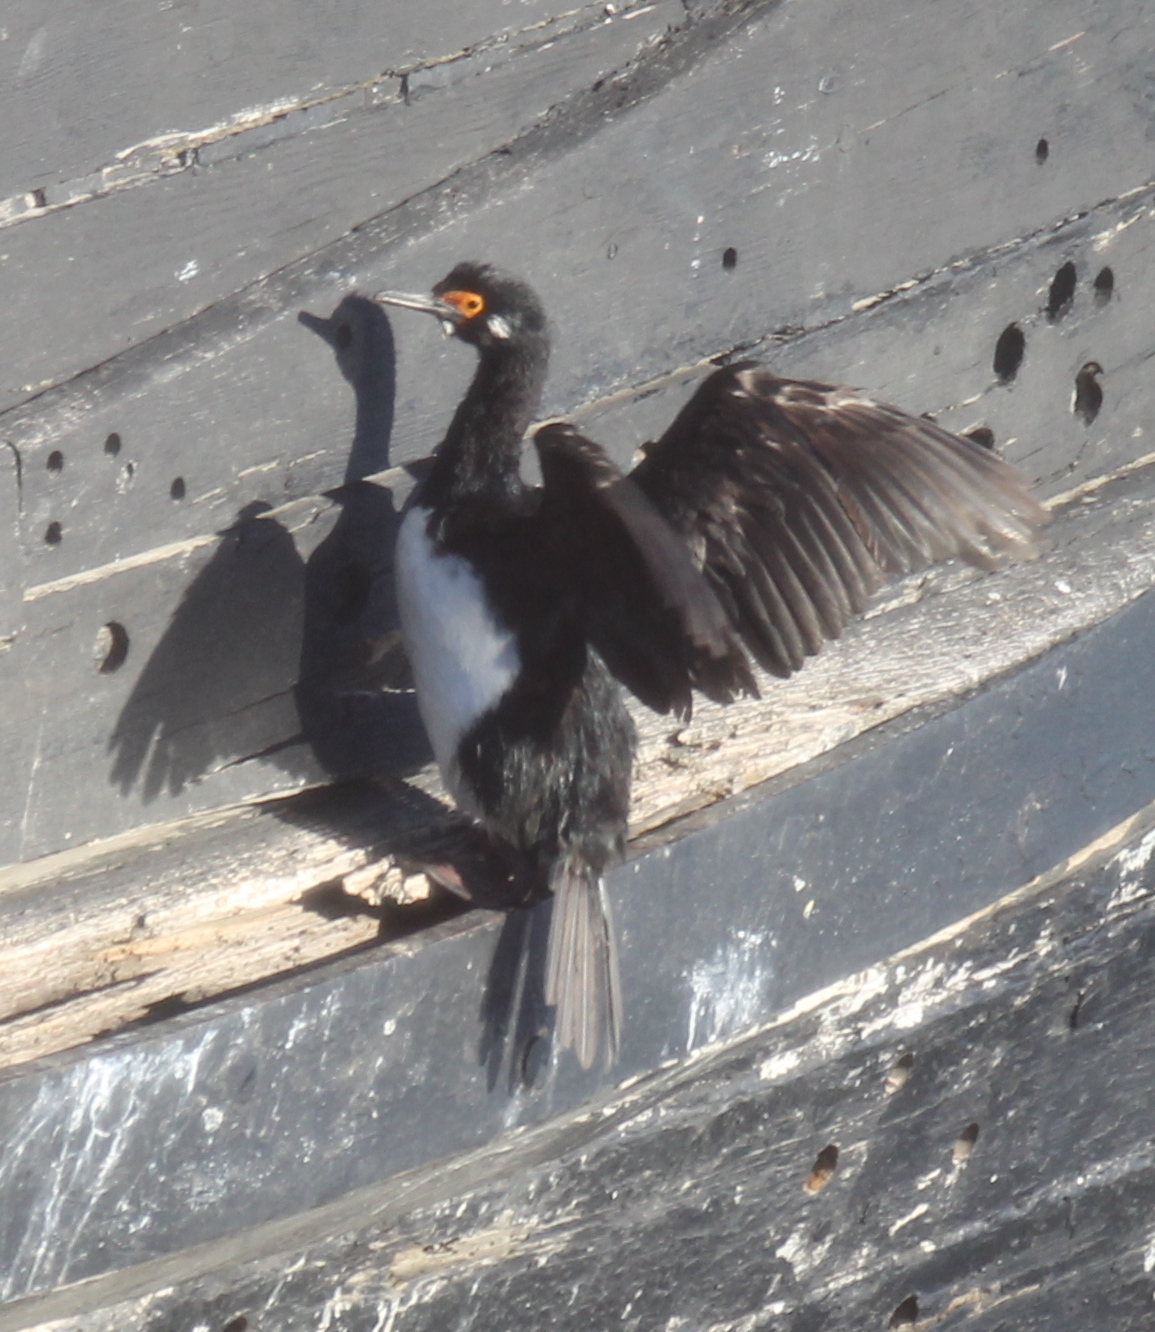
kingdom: Animalia
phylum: Chordata
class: Aves
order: Suliformes
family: Phalacrocoracidae
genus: Phalacrocorax
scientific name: Phalacrocorax magellanicus
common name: Rock shag
